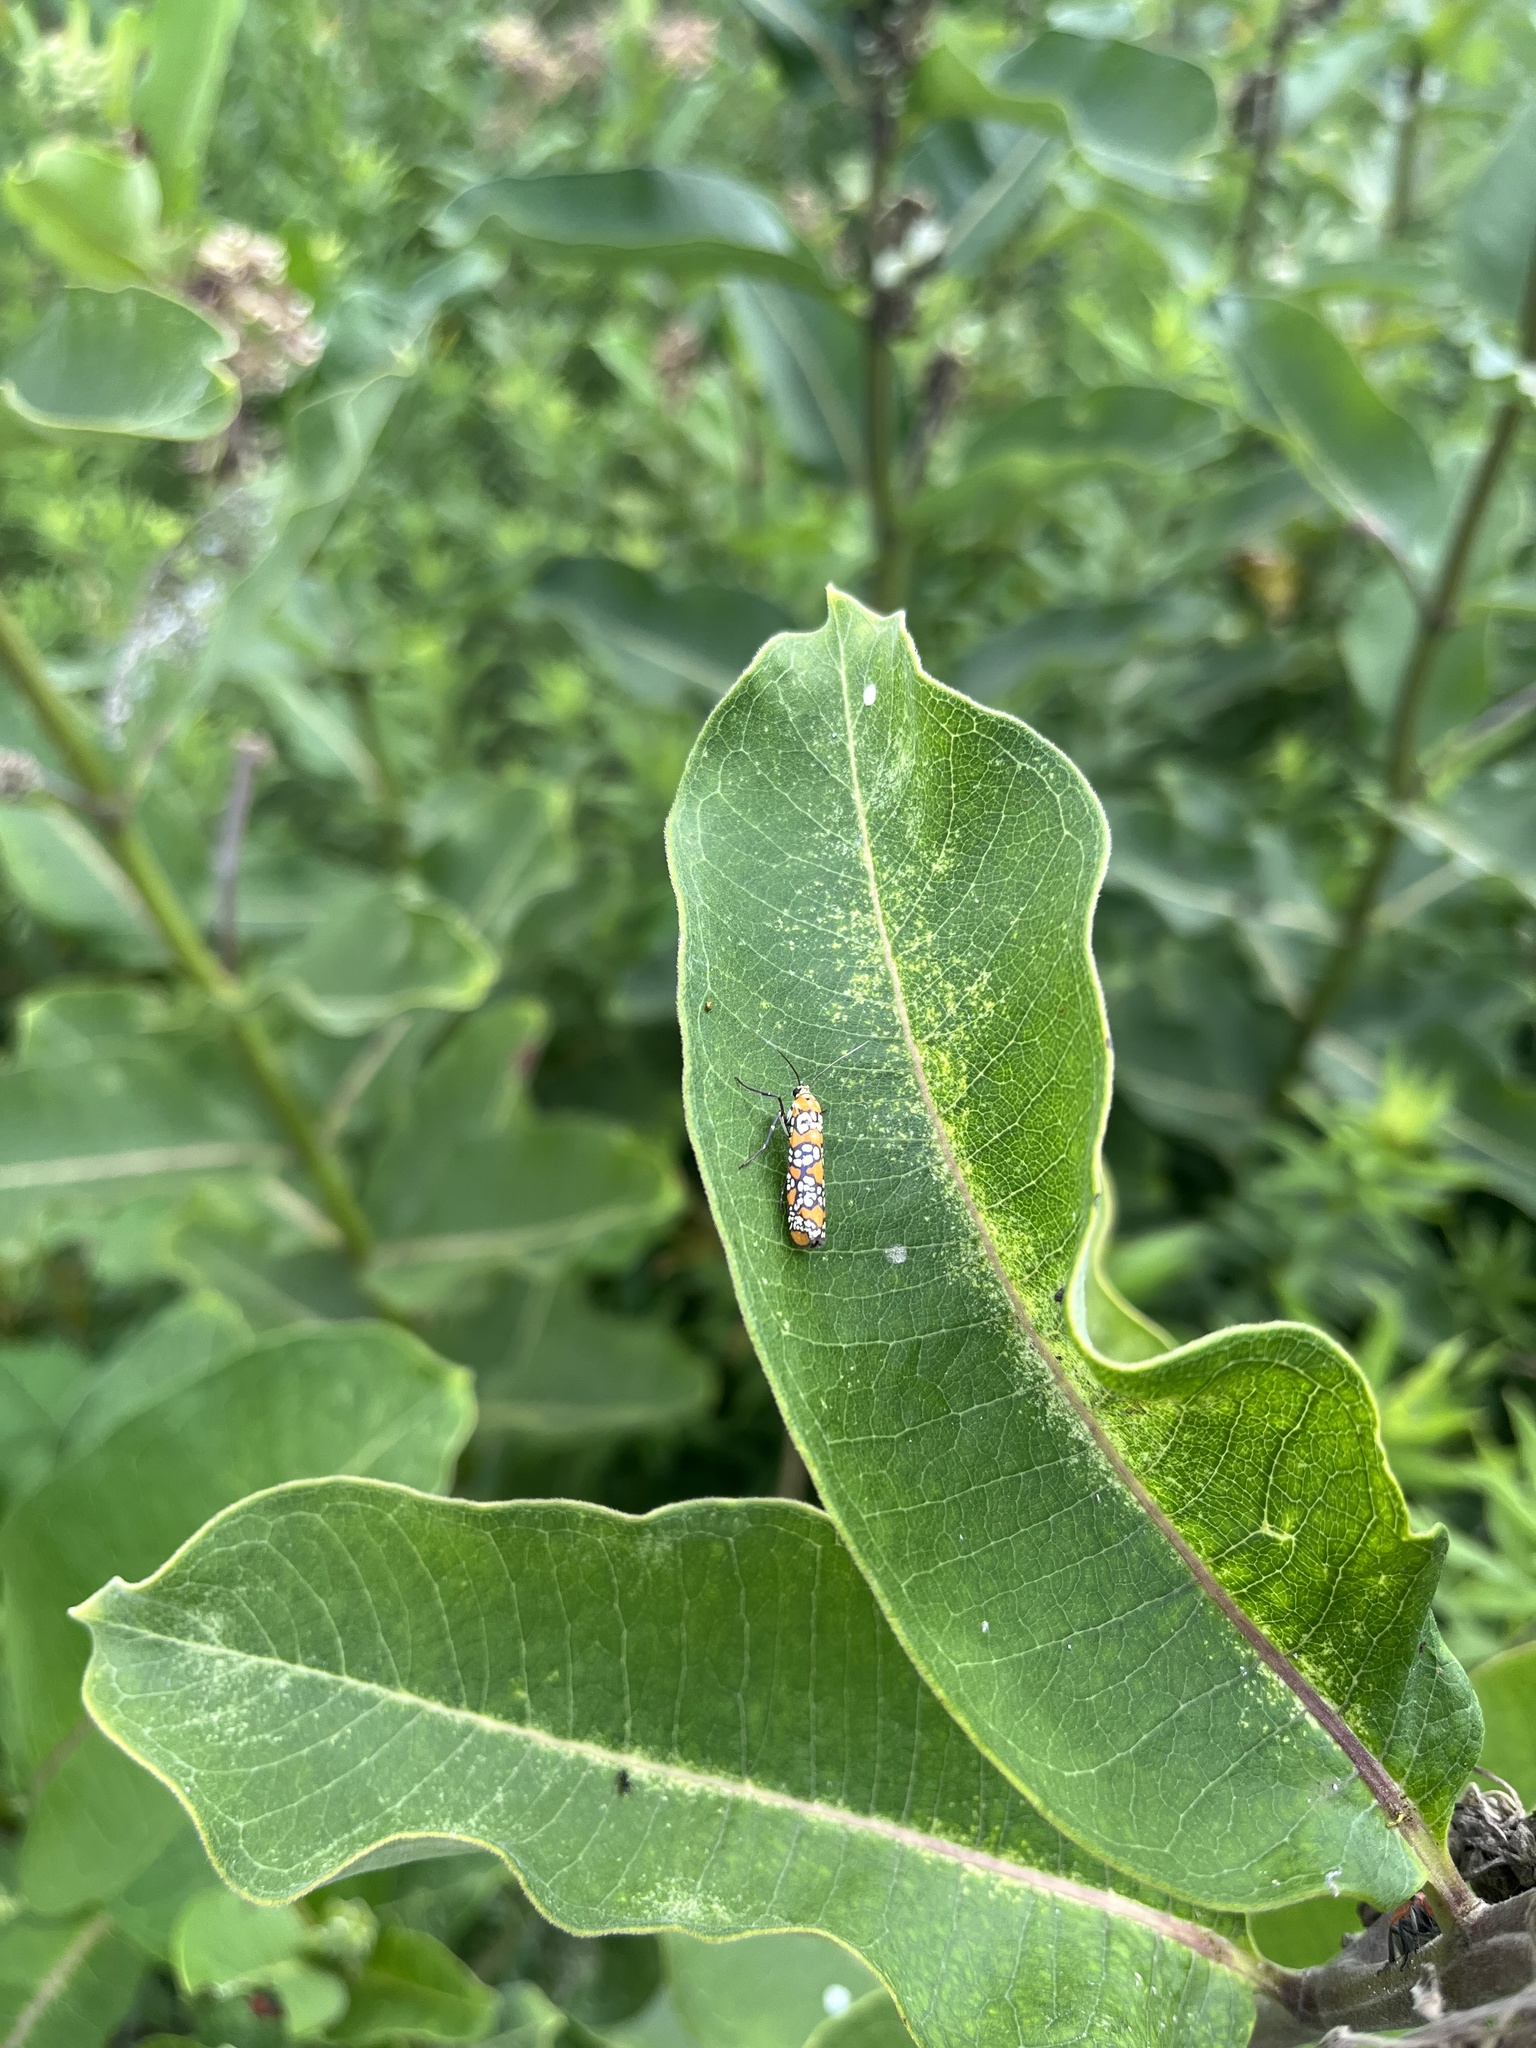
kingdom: Animalia
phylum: Arthropoda
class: Insecta
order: Lepidoptera
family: Attevidae
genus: Atteva
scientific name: Atteva punctella
